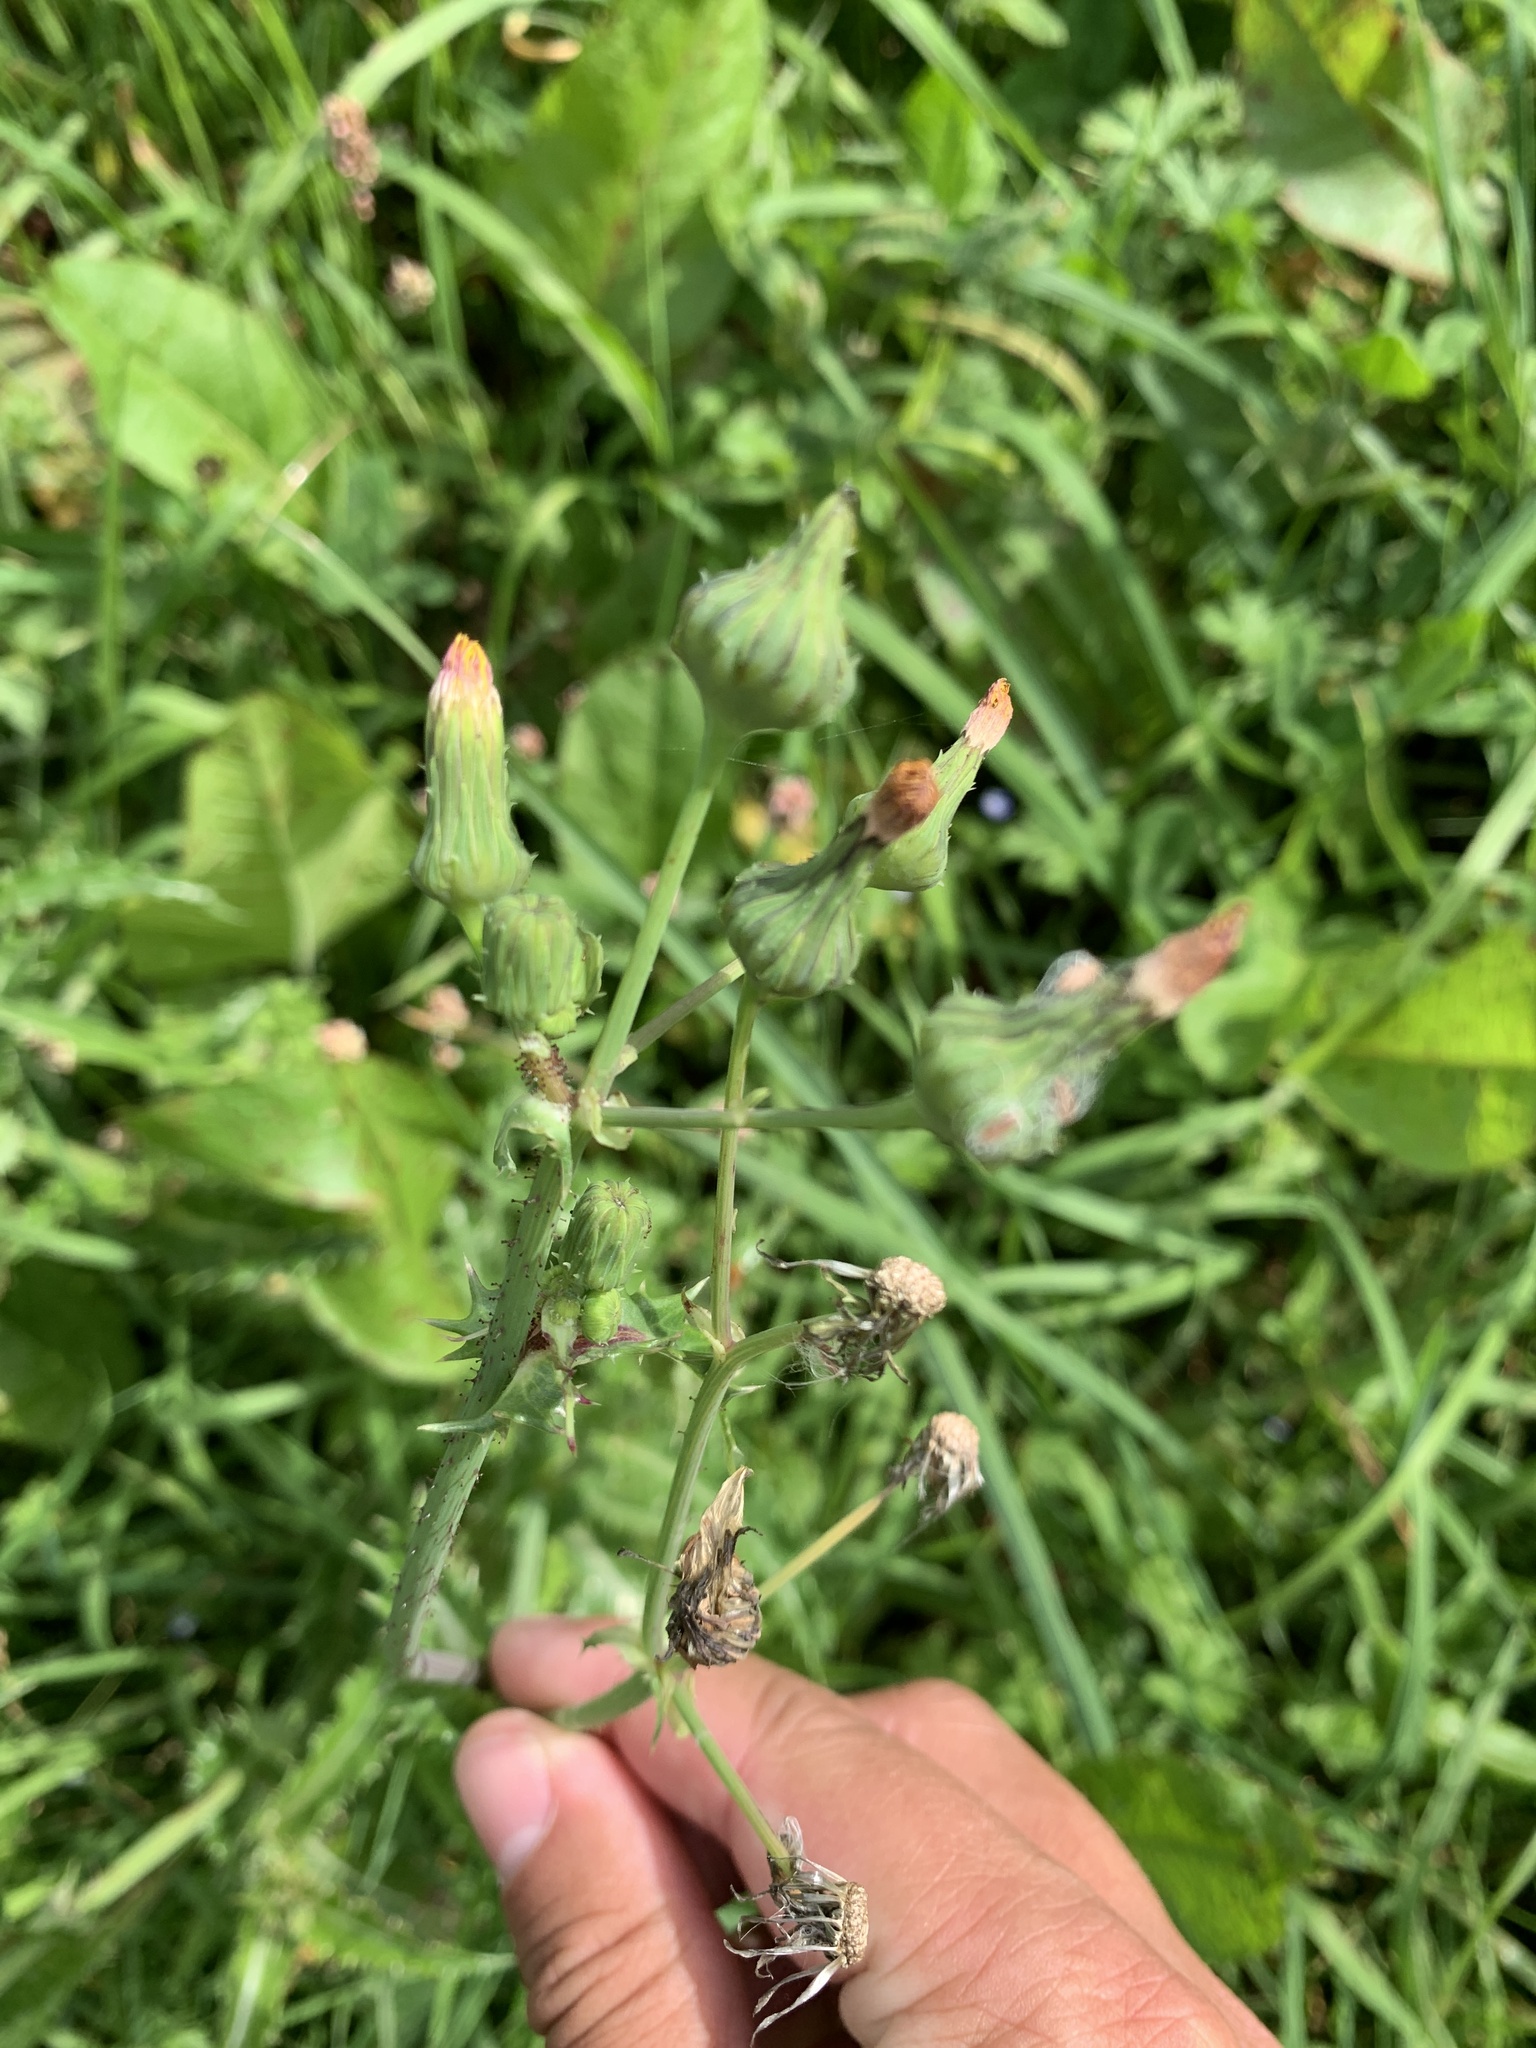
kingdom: Plantae
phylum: Tracheophyta
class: Magnoliopsida
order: Asterales
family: Asteraceae
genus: Sonchus
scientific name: Sonchus oleraceus
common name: Common sowthistle
